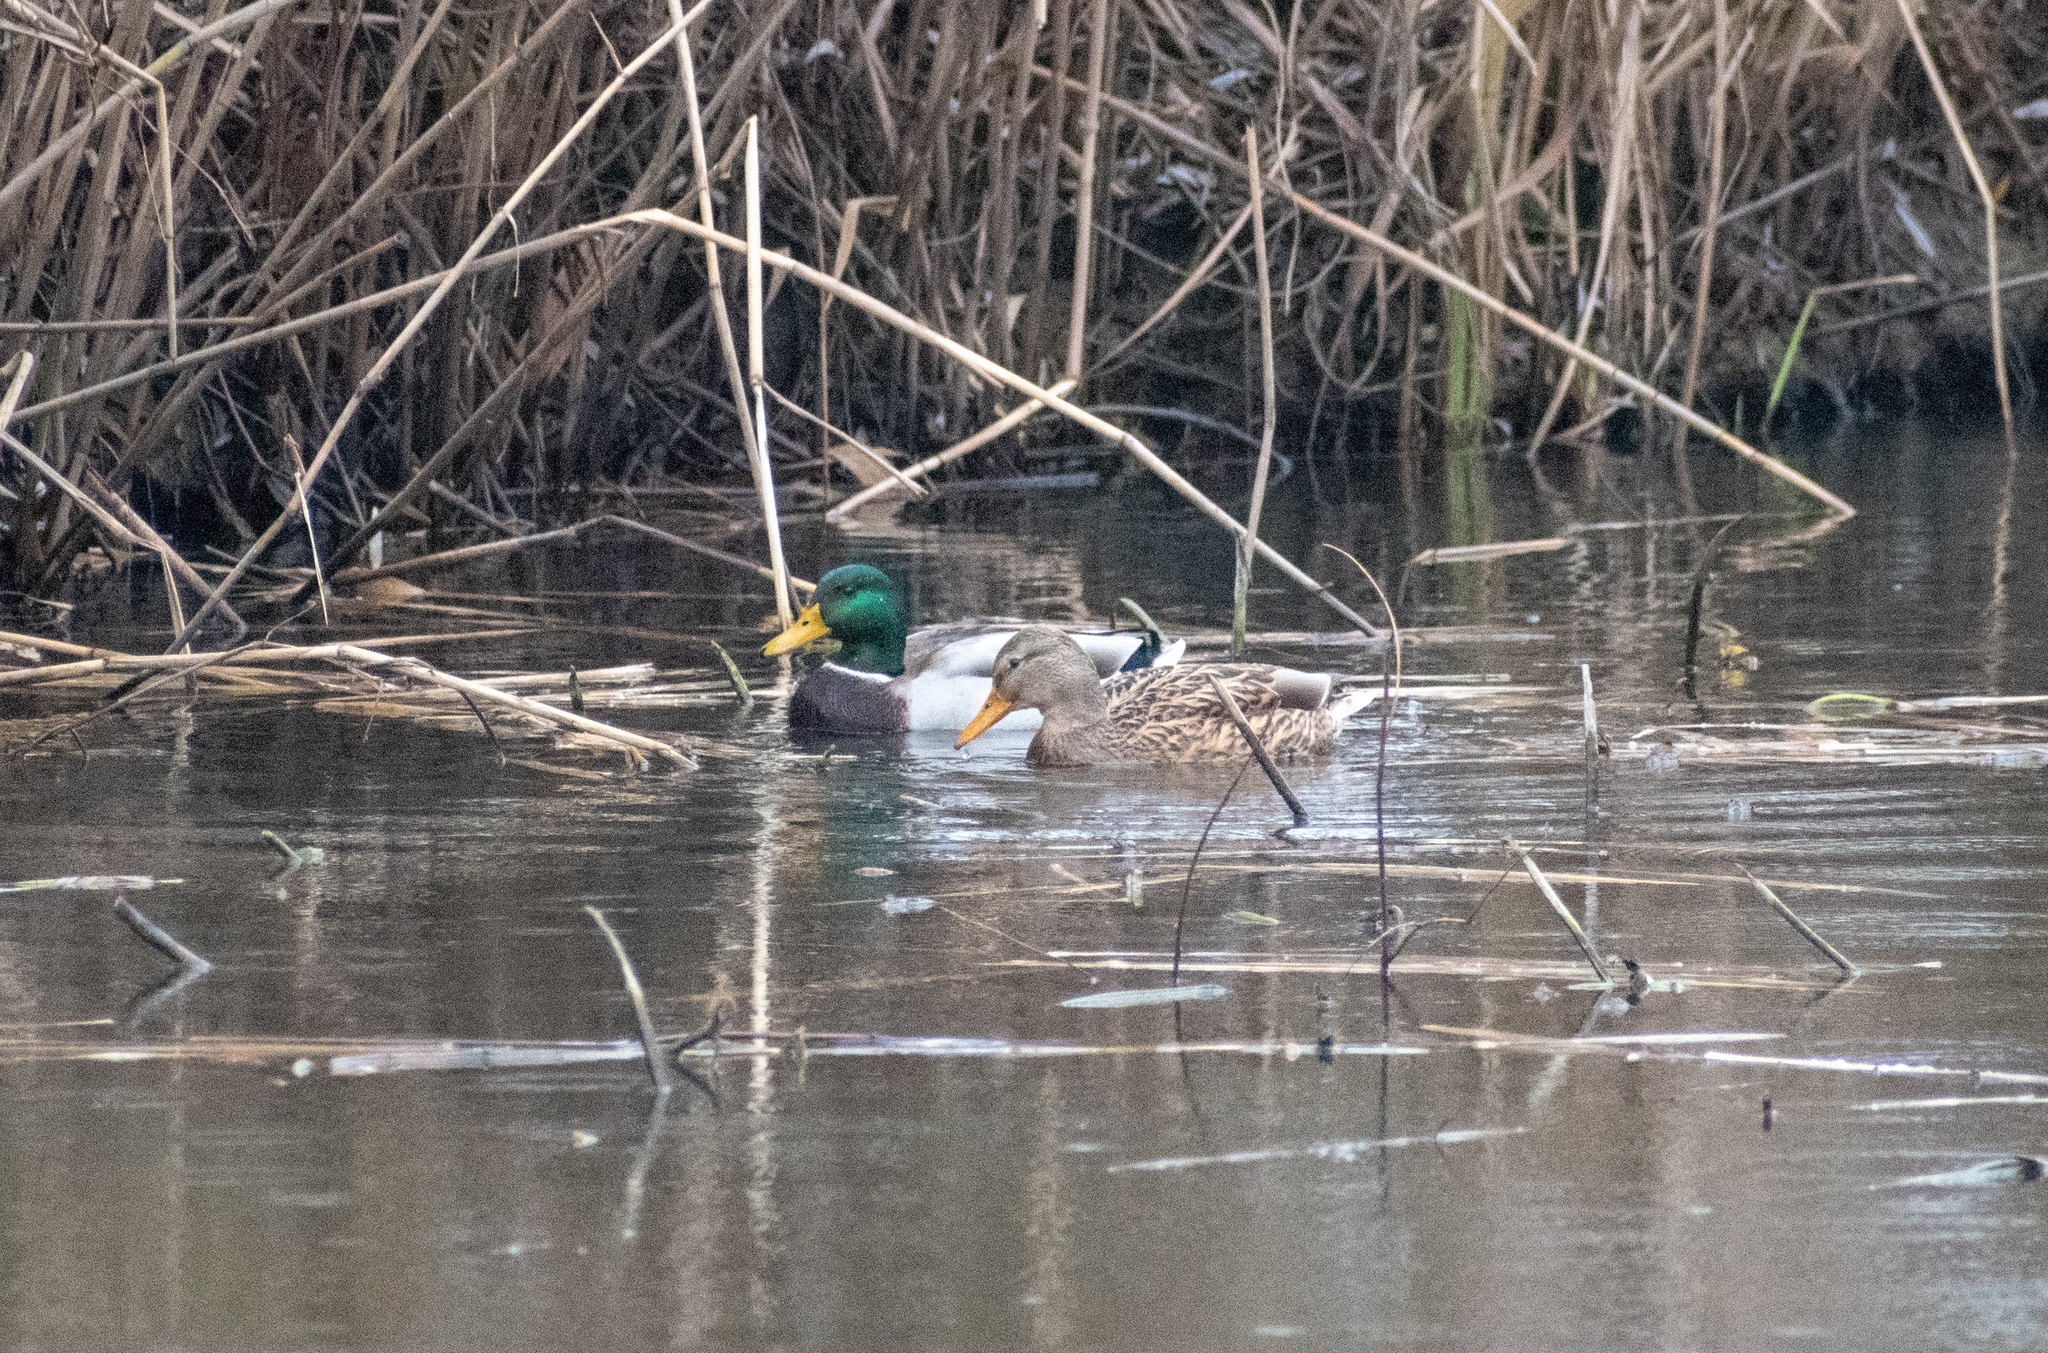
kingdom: Animalia
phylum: Chordata
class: Aves
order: Anseriformes
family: Anatidae
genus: Anas
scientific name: Anas platyrhynchos
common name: Mallard
